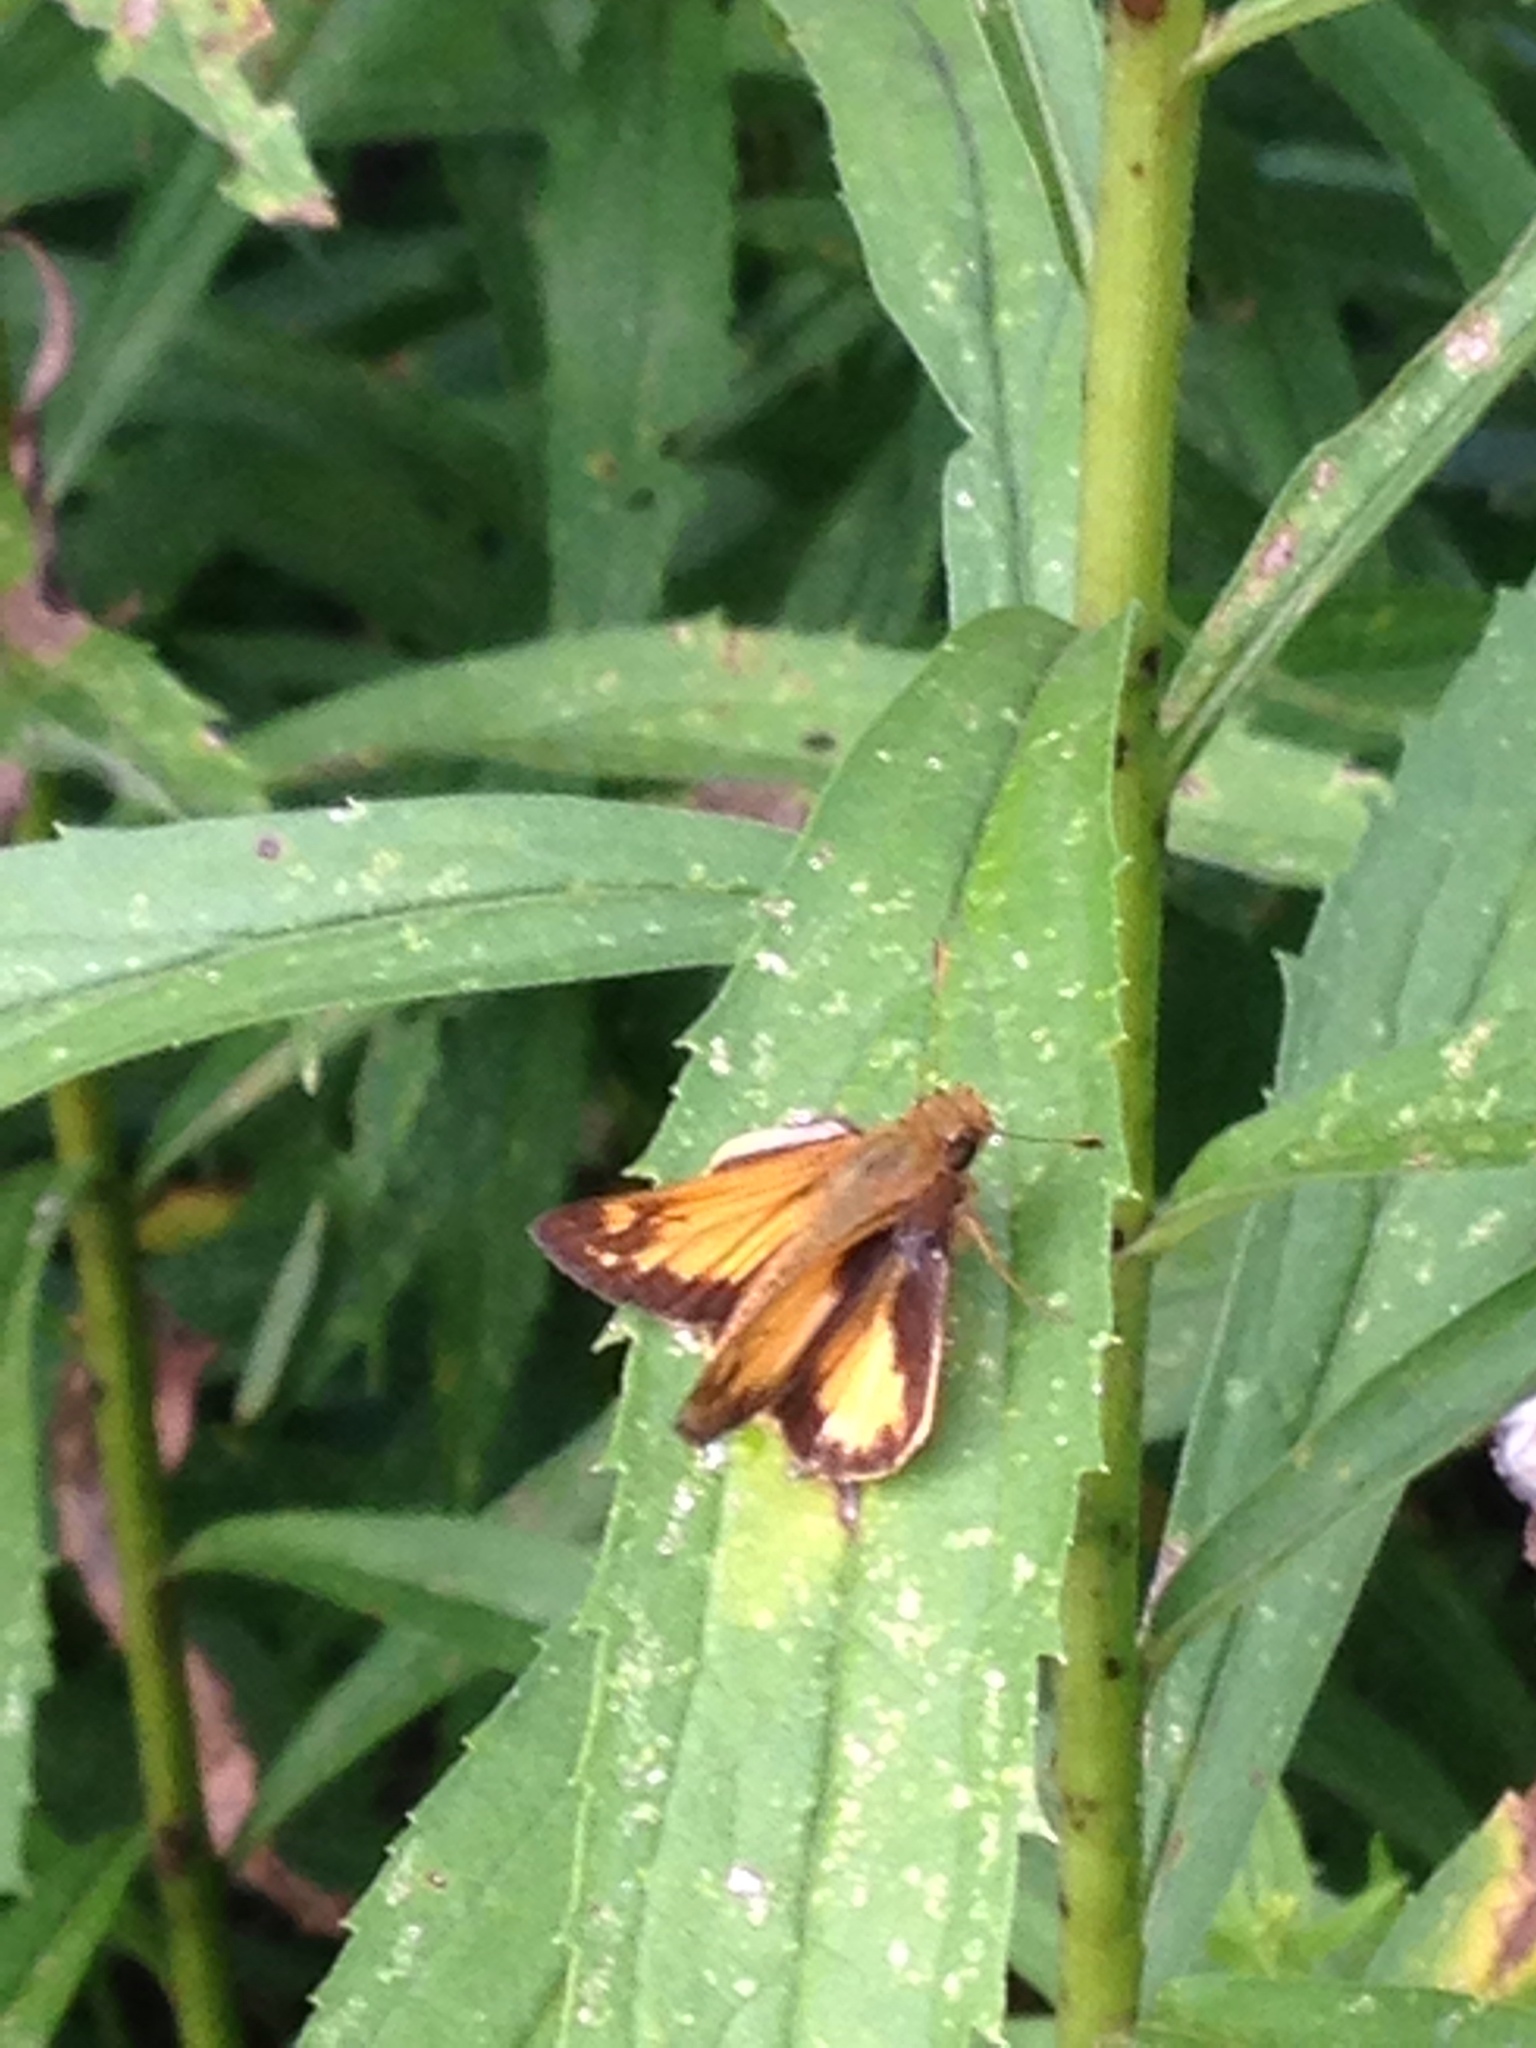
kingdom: Animalia
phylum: Arthropoda
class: Insecta
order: Lepidoptera
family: Hesperiidae
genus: Lon
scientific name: Lon zabulon
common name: Zabulon skipper
